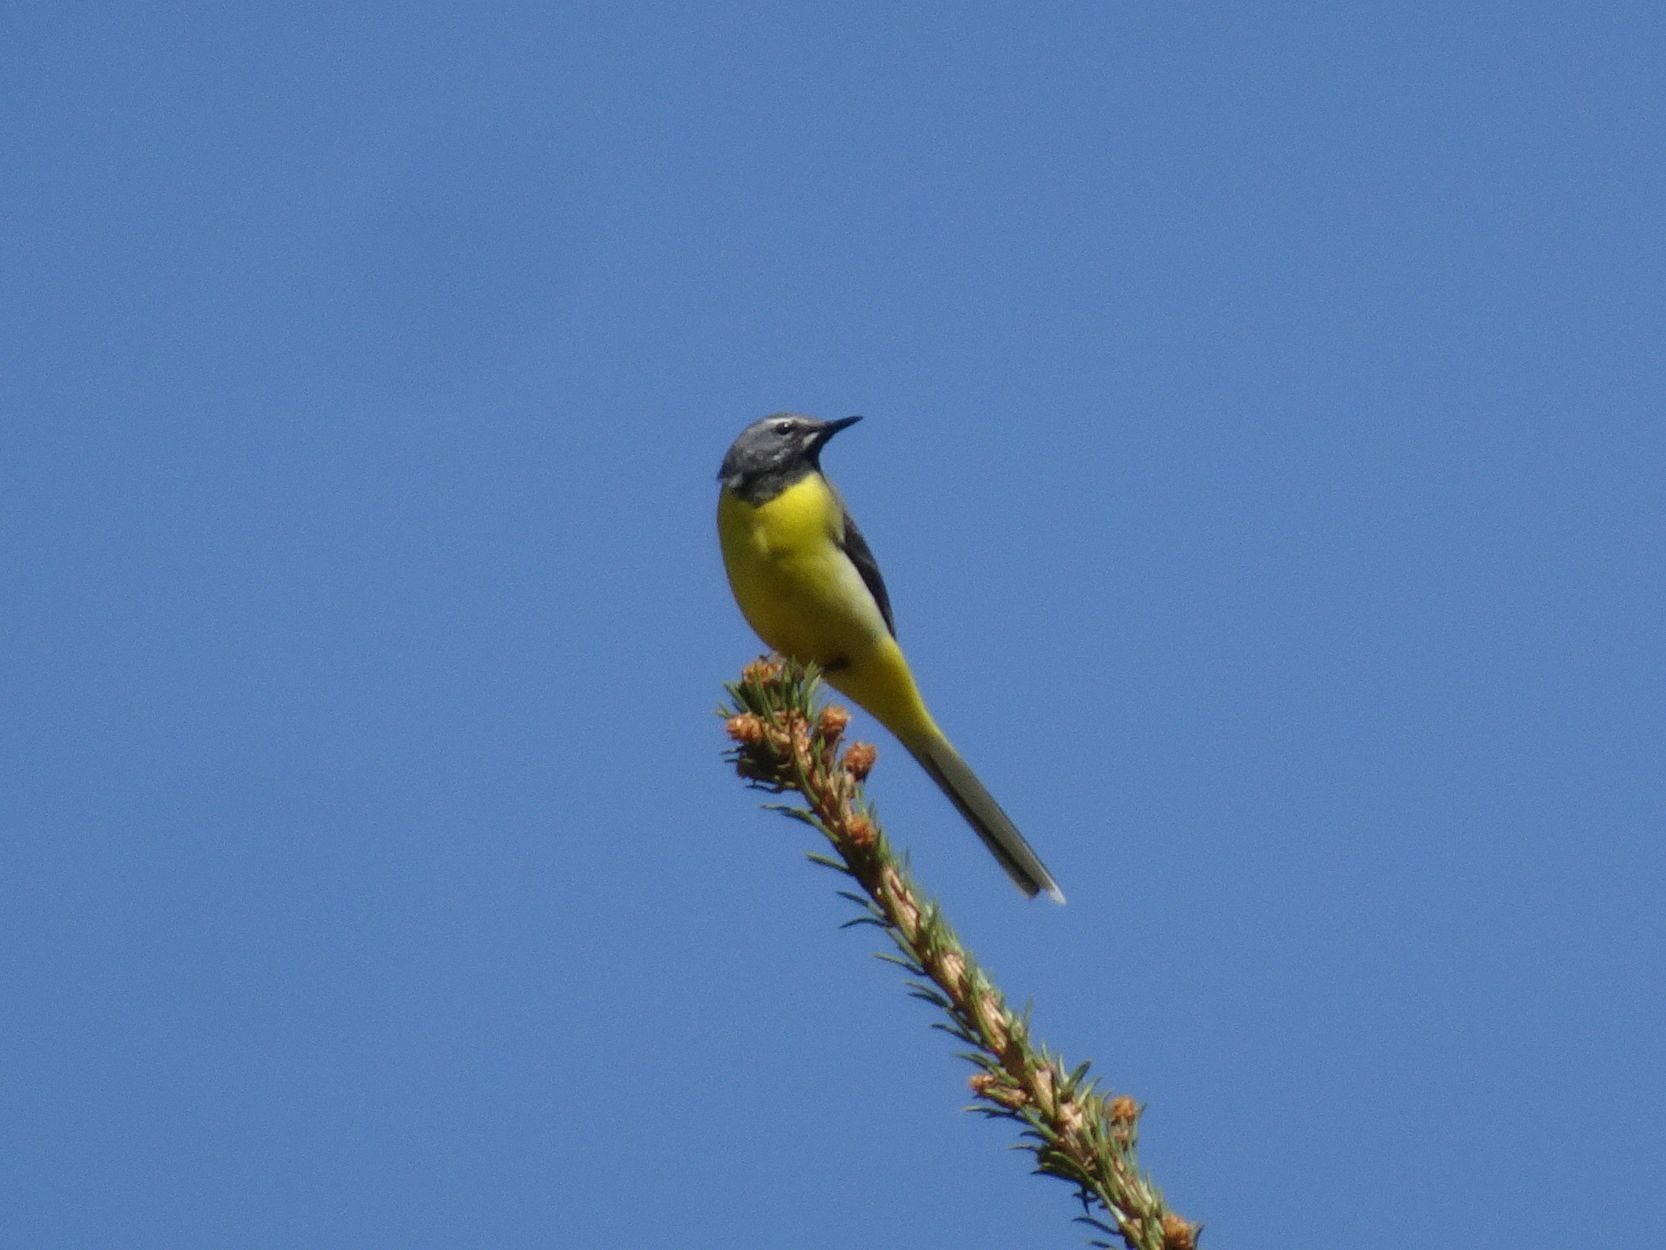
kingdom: Animalia
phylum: Chordata
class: Aves
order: Passeriformes
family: Motacillidae
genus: Motacilla
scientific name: Motacilla cinerea
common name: Grey wagtail
